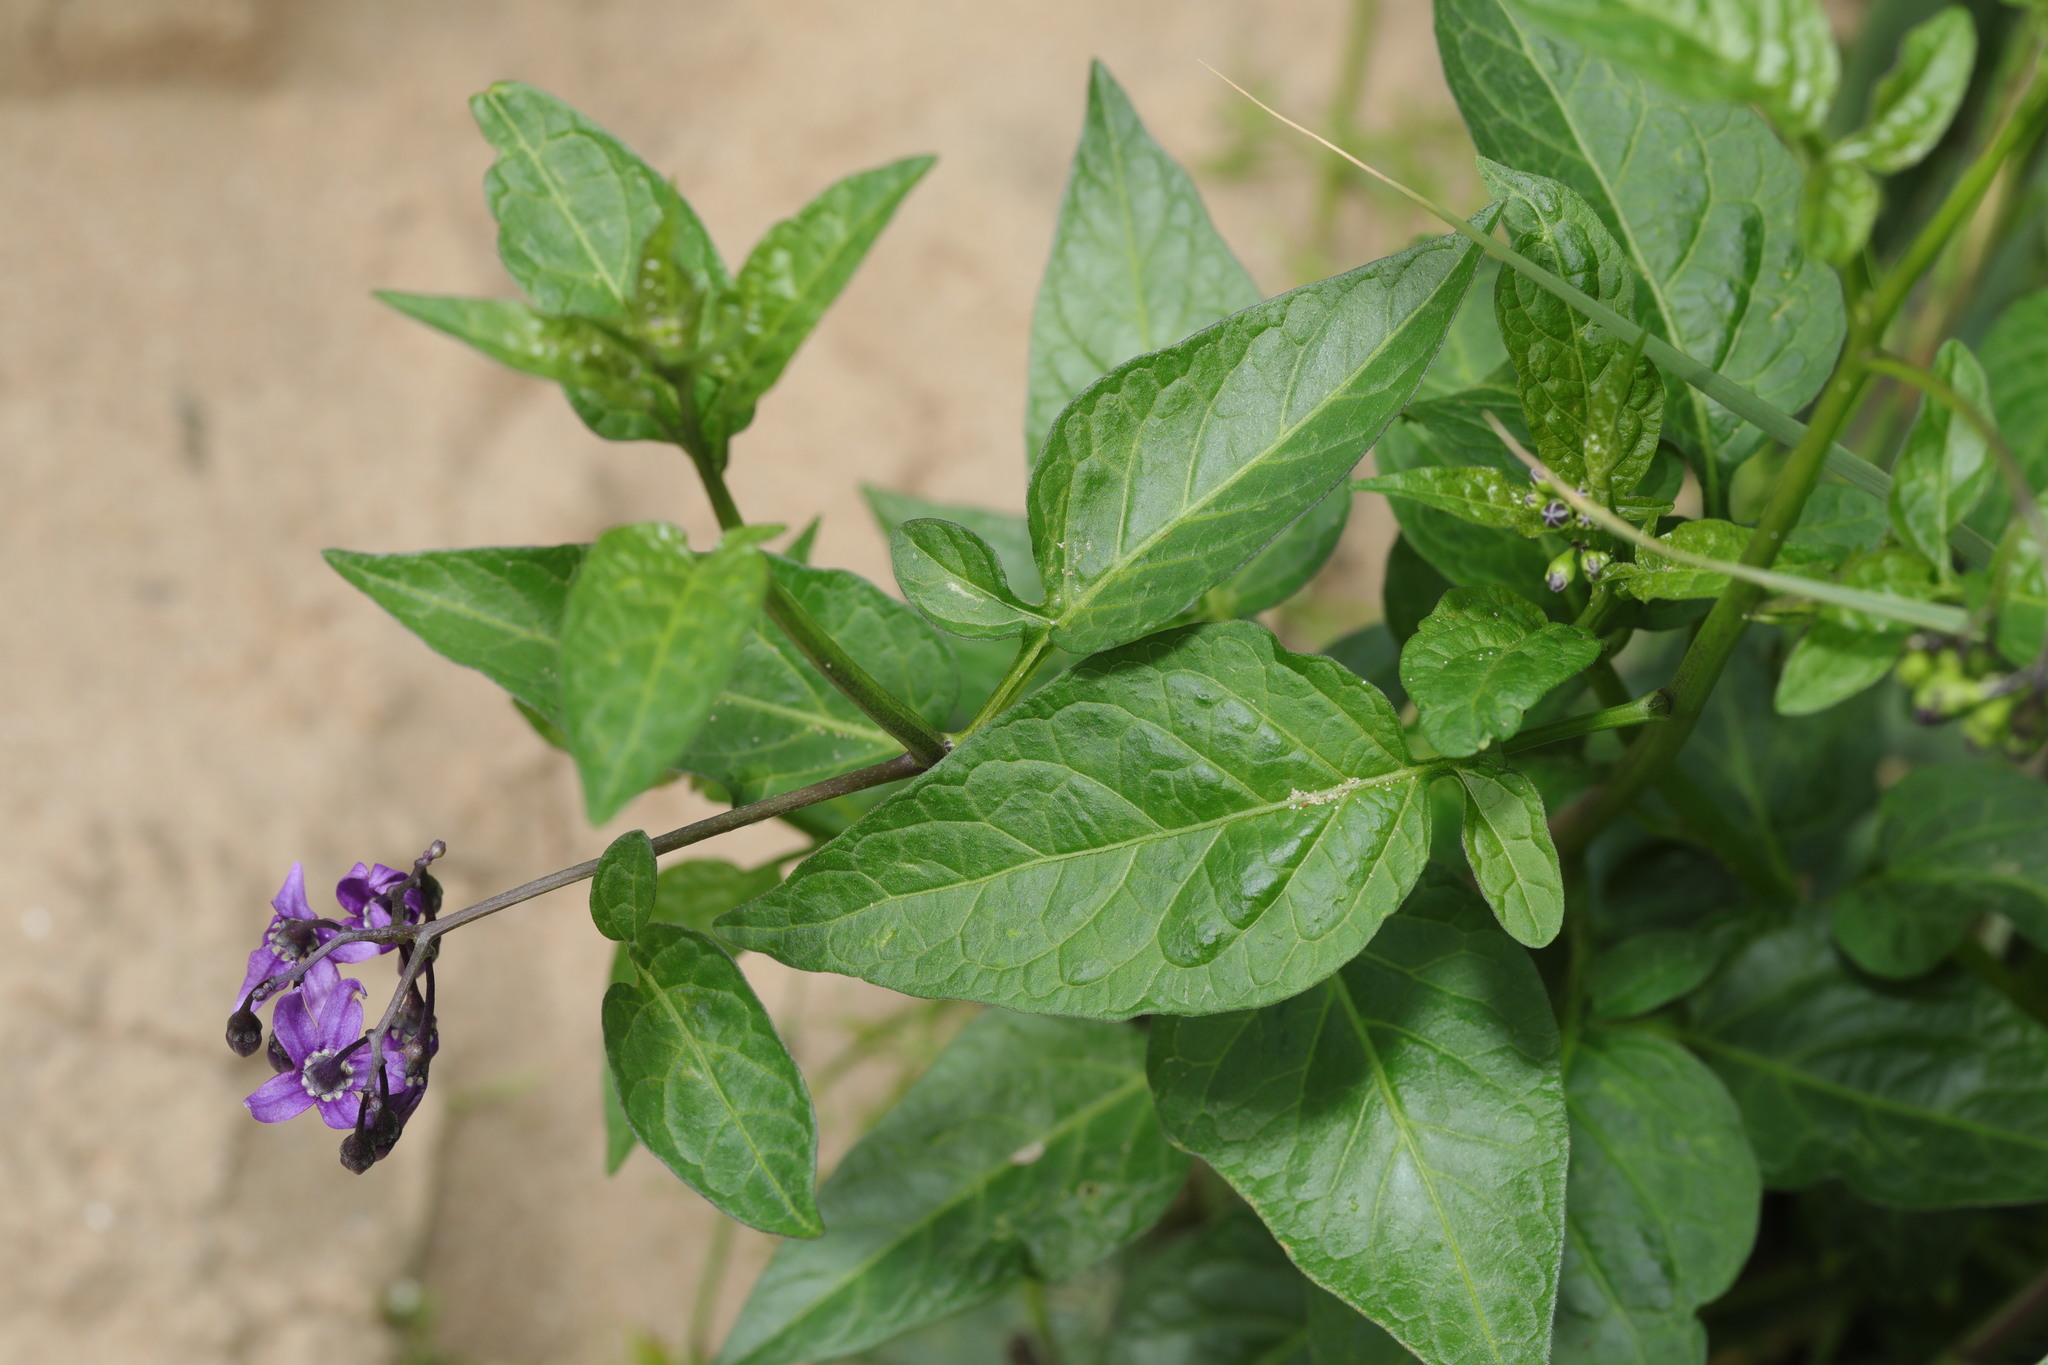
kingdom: Plantae
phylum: Tracheophyta
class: Magnoliopsida
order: Solanales
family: Solanaceae
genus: Solanum
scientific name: Solanum dulcamara
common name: Climbing nightshade
